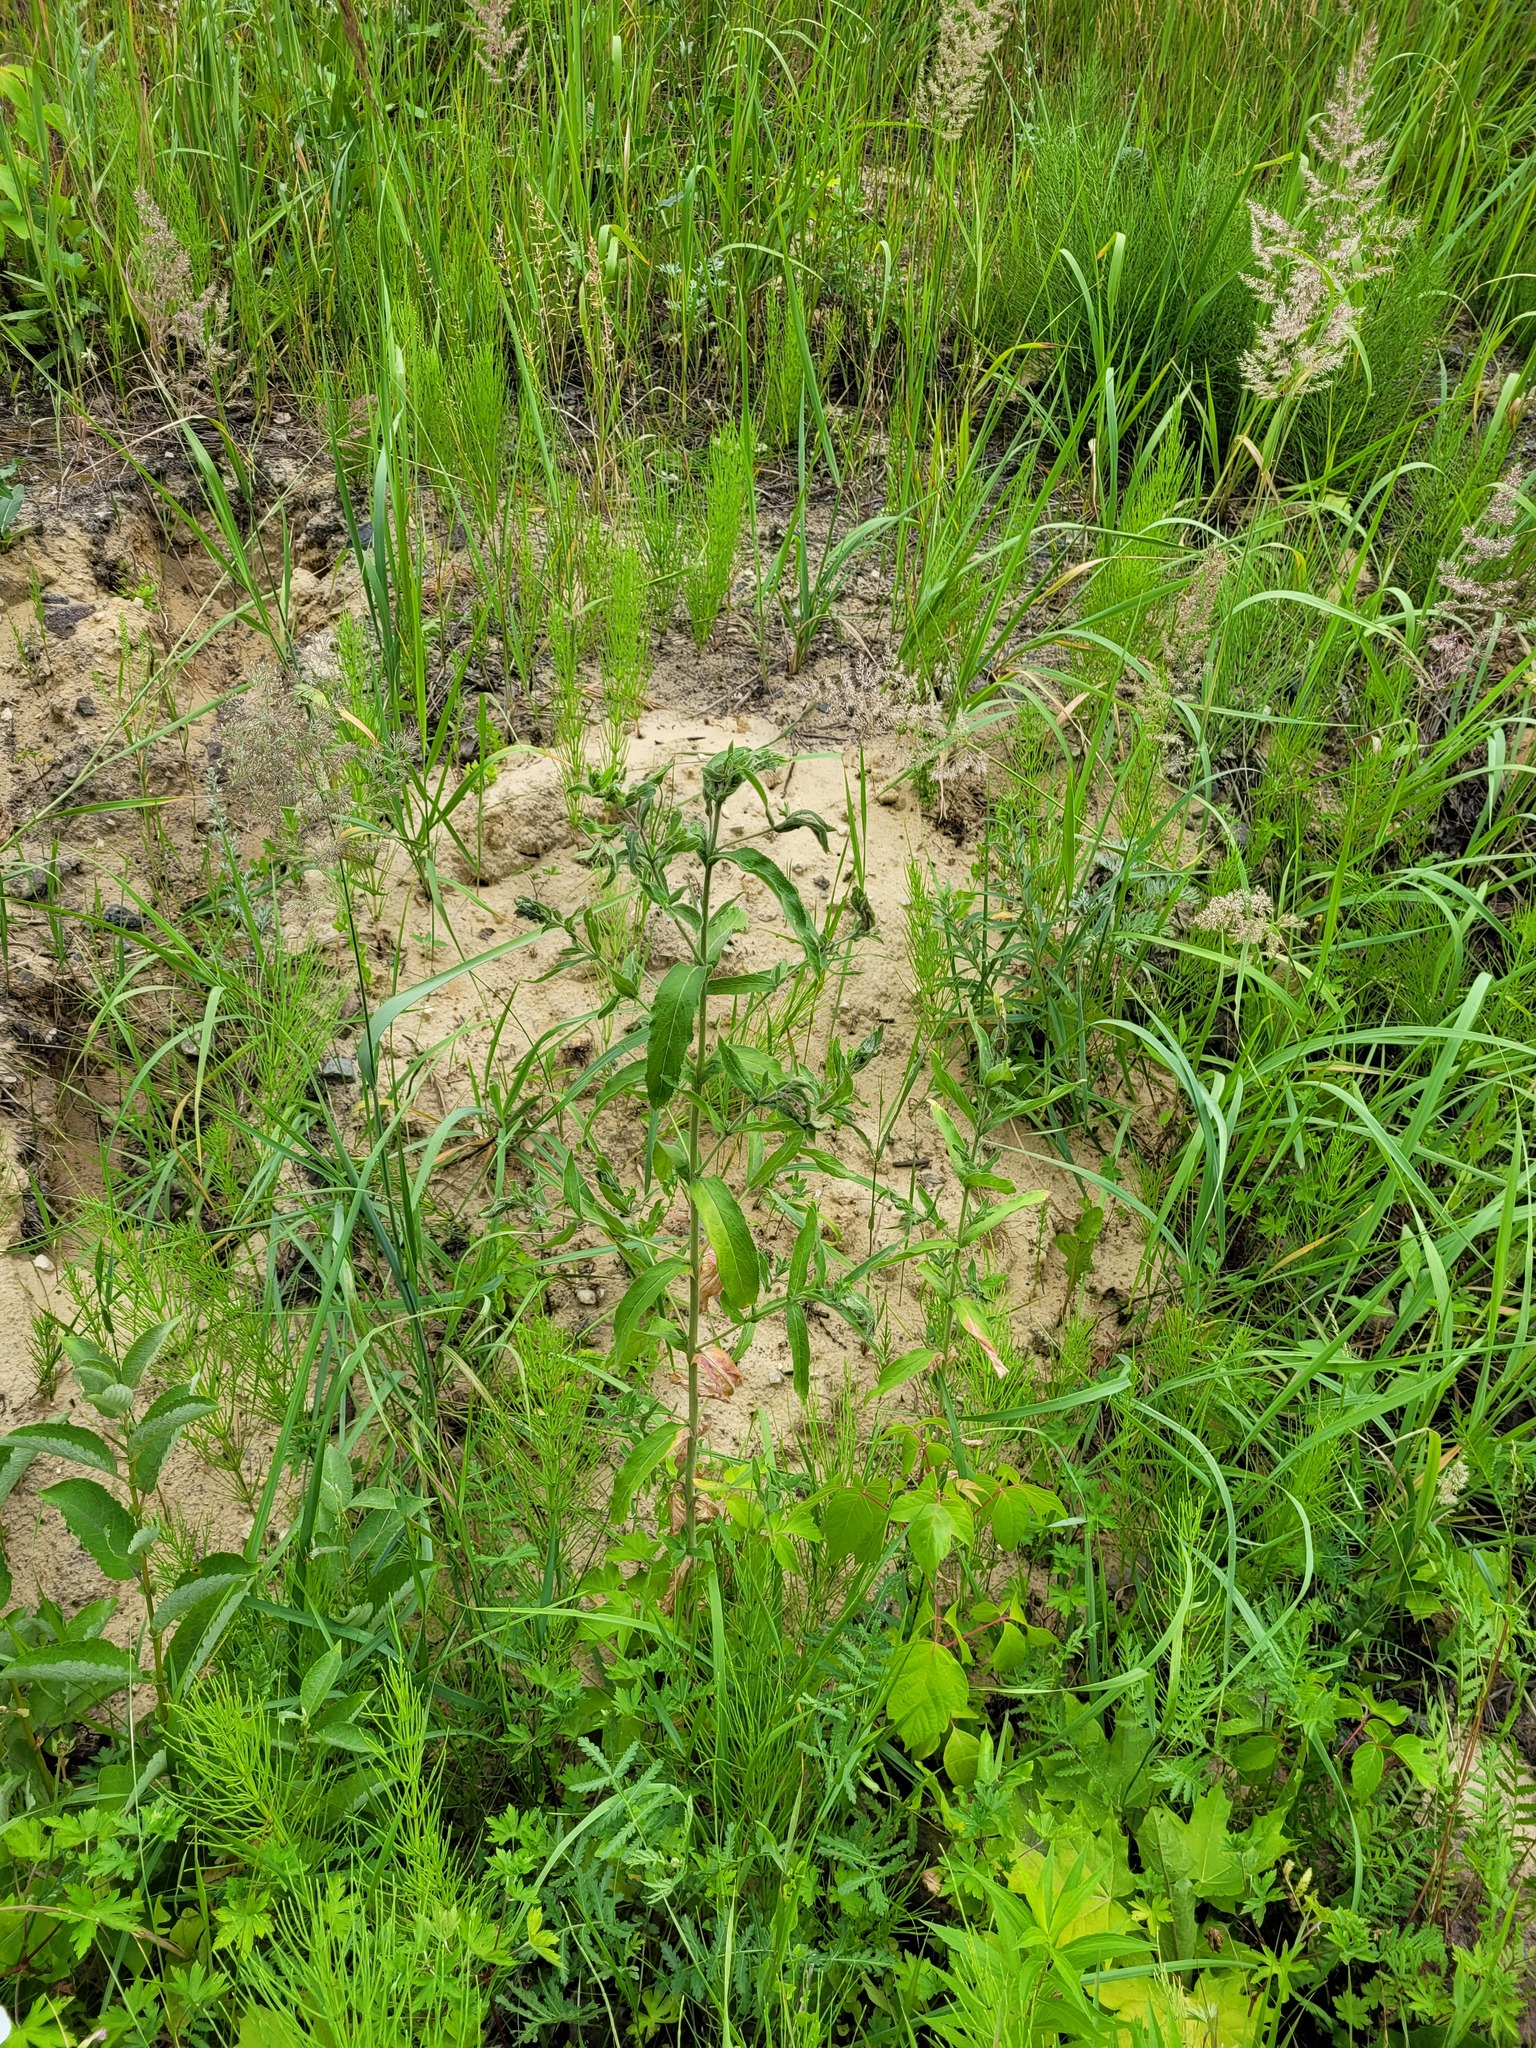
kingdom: Plantae
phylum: Tracheophyta
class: Magnoliopsida
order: Myrtales
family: Onagraceae
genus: Epilobium
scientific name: Epilobium hirsutum
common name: Great willowherb
